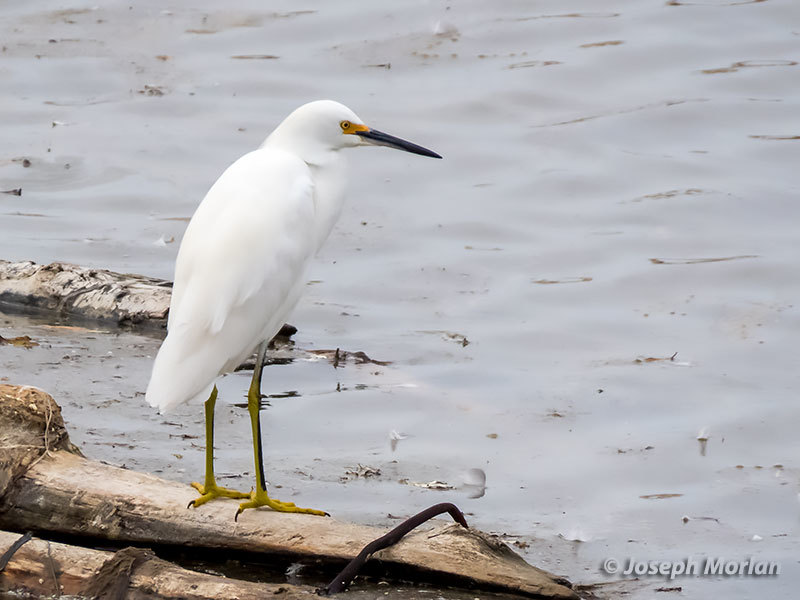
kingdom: Animalia
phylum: Chordata
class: Aves
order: Pelecaniformes
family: Ardeidae
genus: Egretta
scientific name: Egretta thula
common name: Snowy egret
